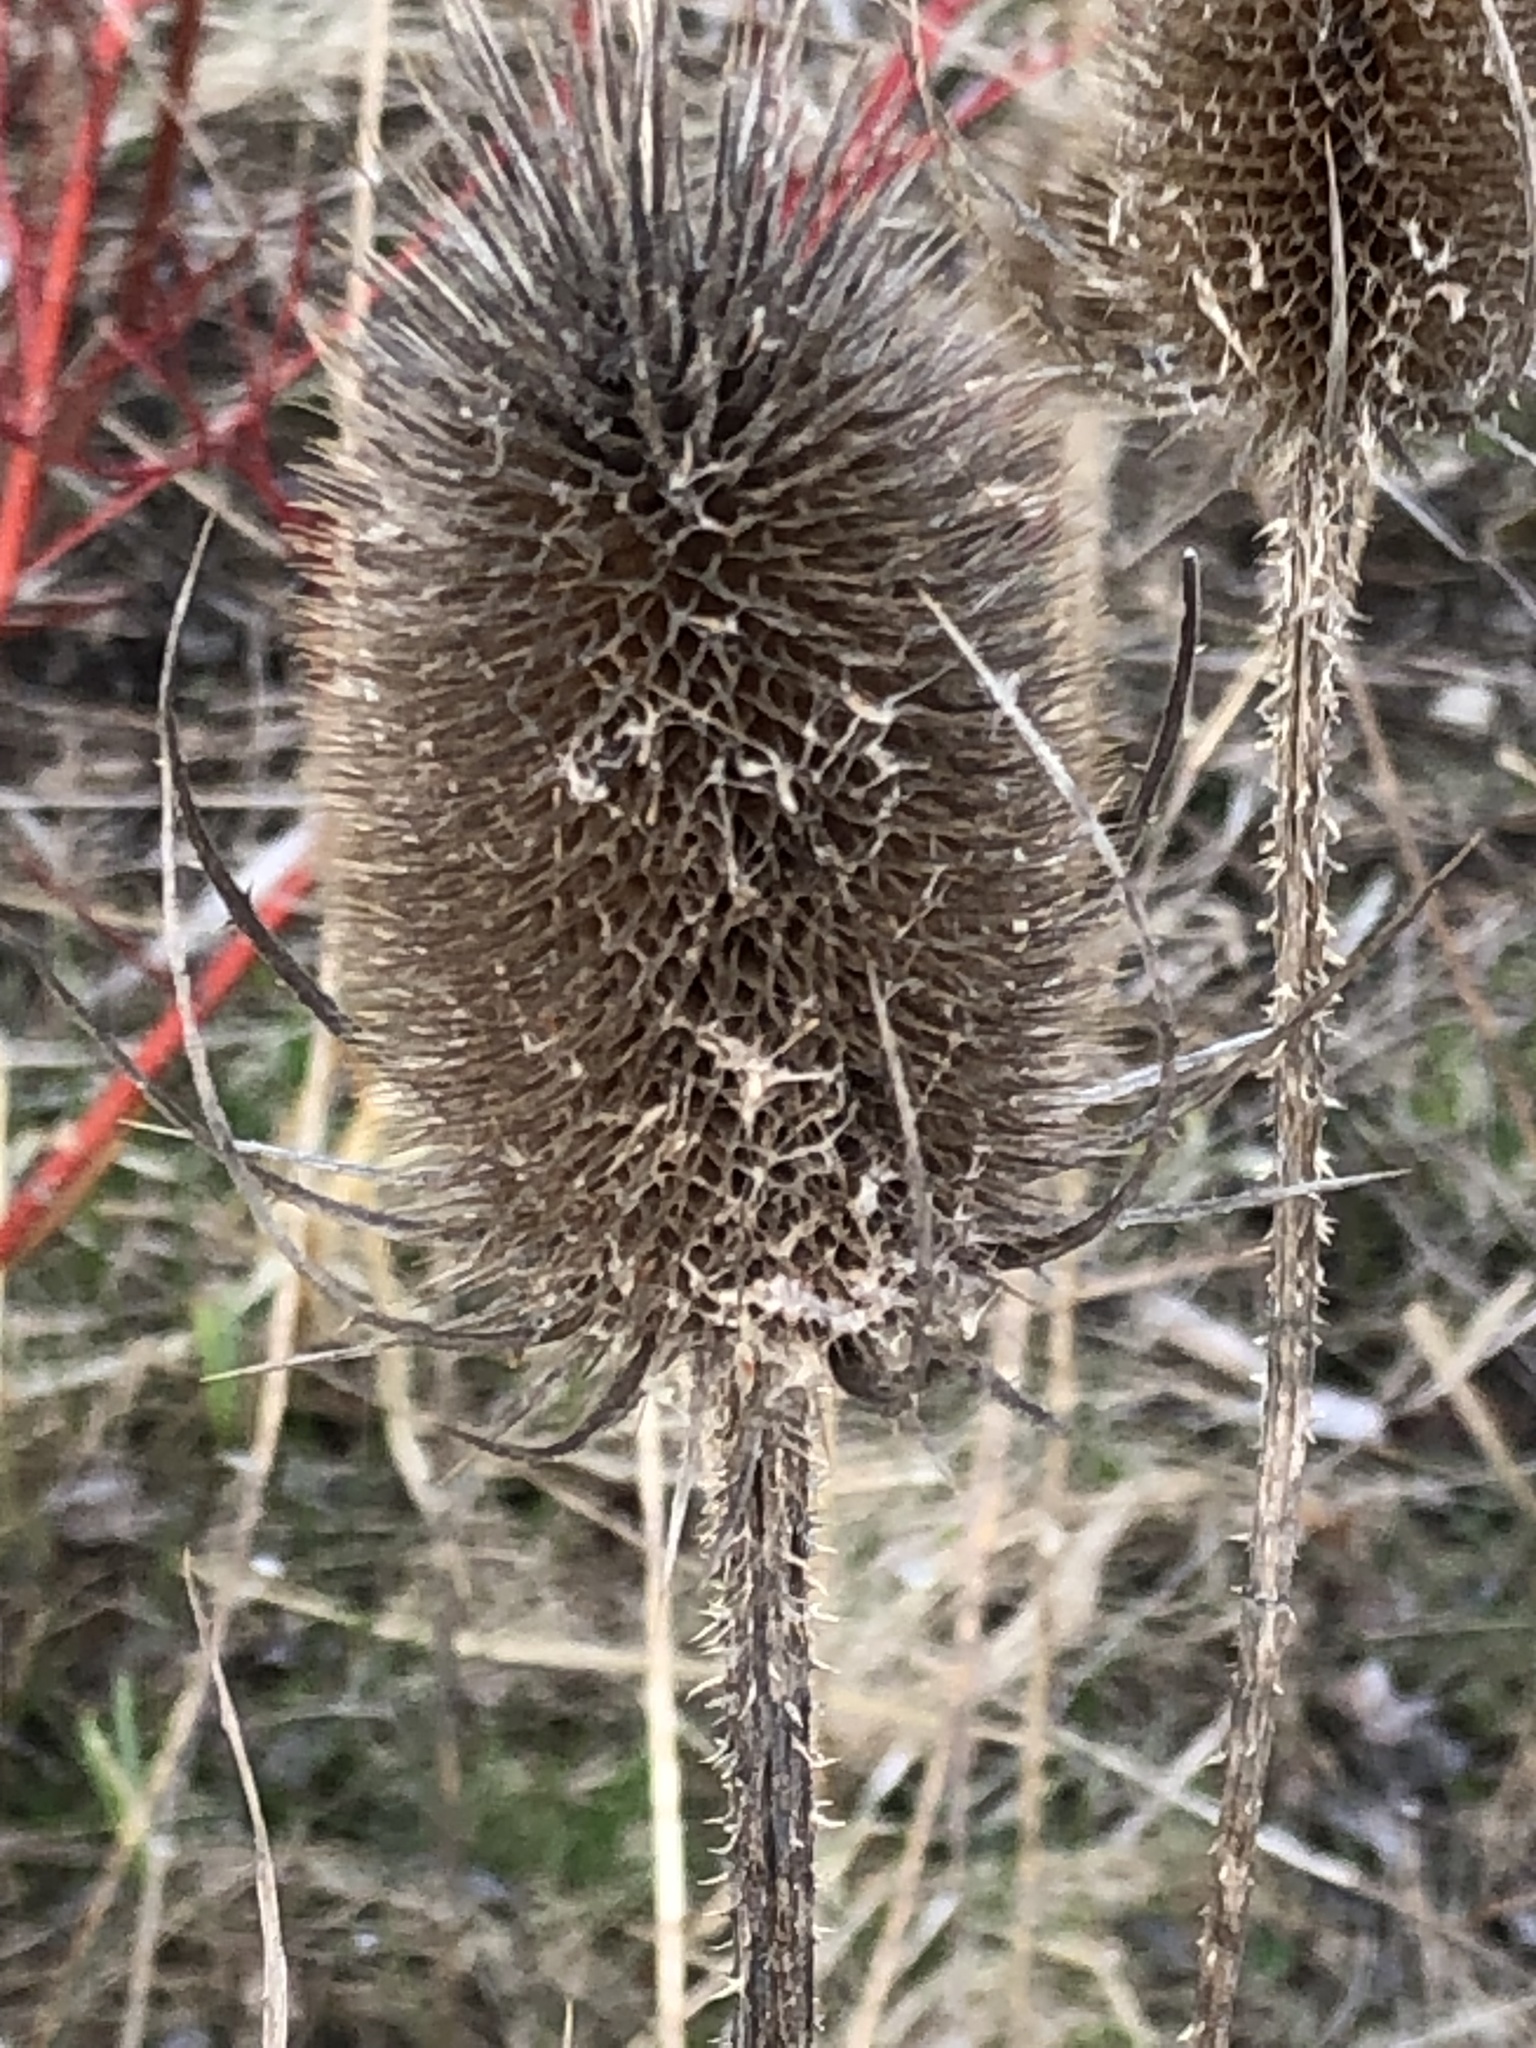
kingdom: Plantae
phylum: Tracheophyta
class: Magnoliopsida
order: Dipsacales
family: Caprifoliaceae
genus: Dipsacus
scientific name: Dipsacus fullonum
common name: Teasel
